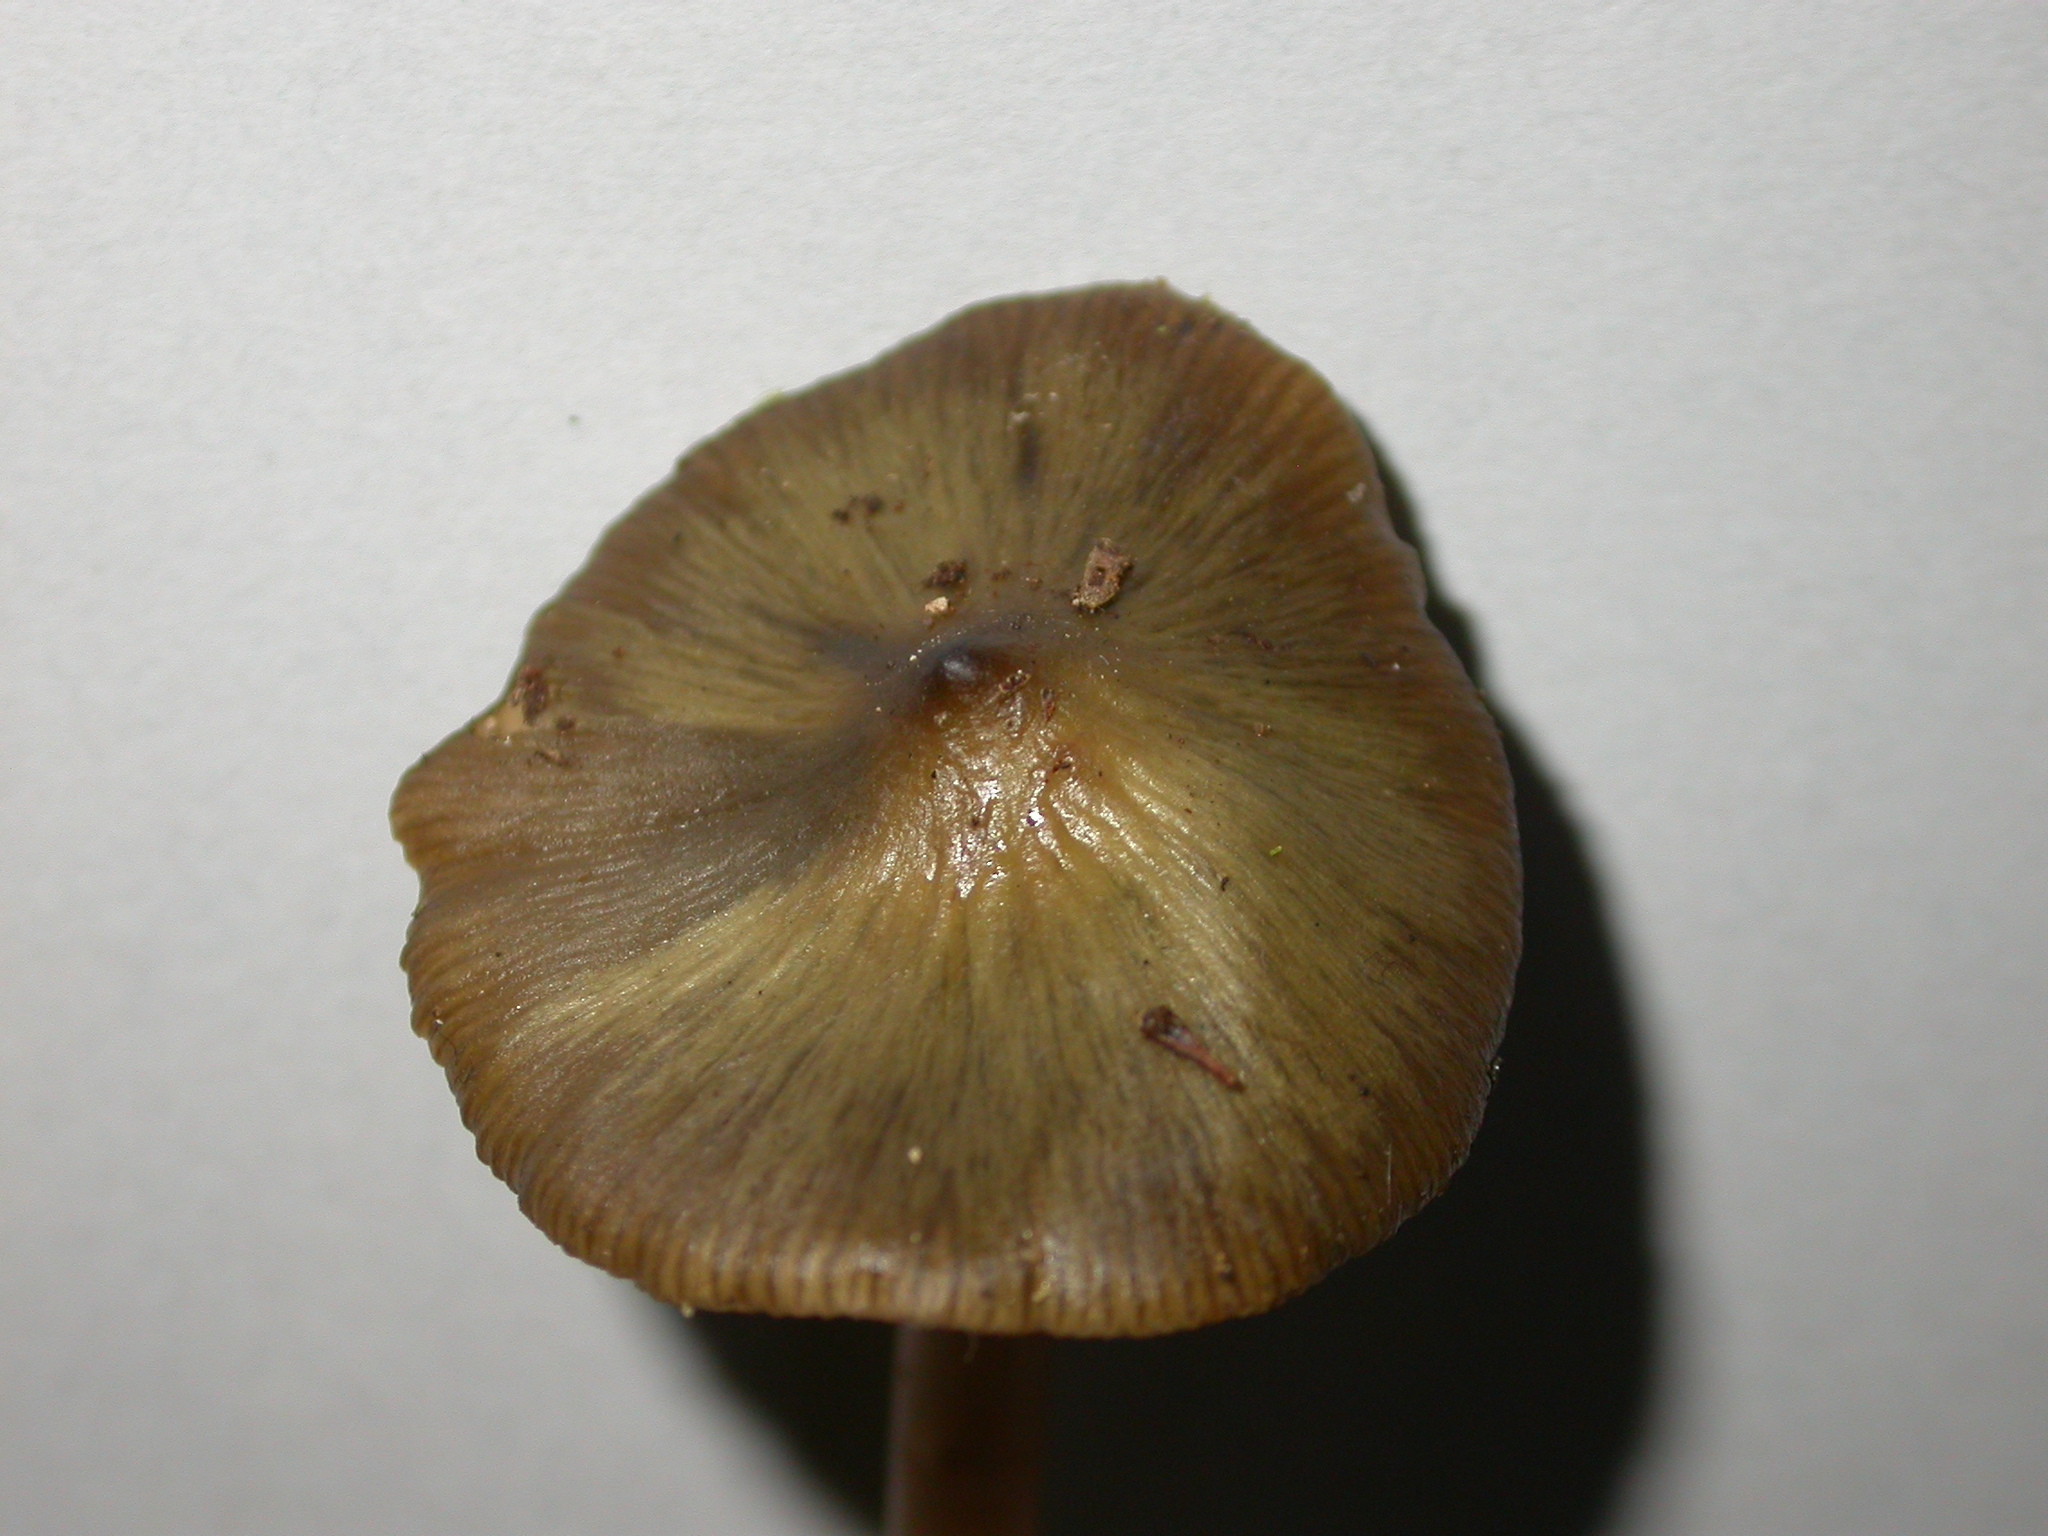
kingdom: Fungi
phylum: Basidiomycota
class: Agaricomycetes
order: Agaricales
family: Hymenogastraceae
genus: Phaeocollybia
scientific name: Phaeocollybia longipes
